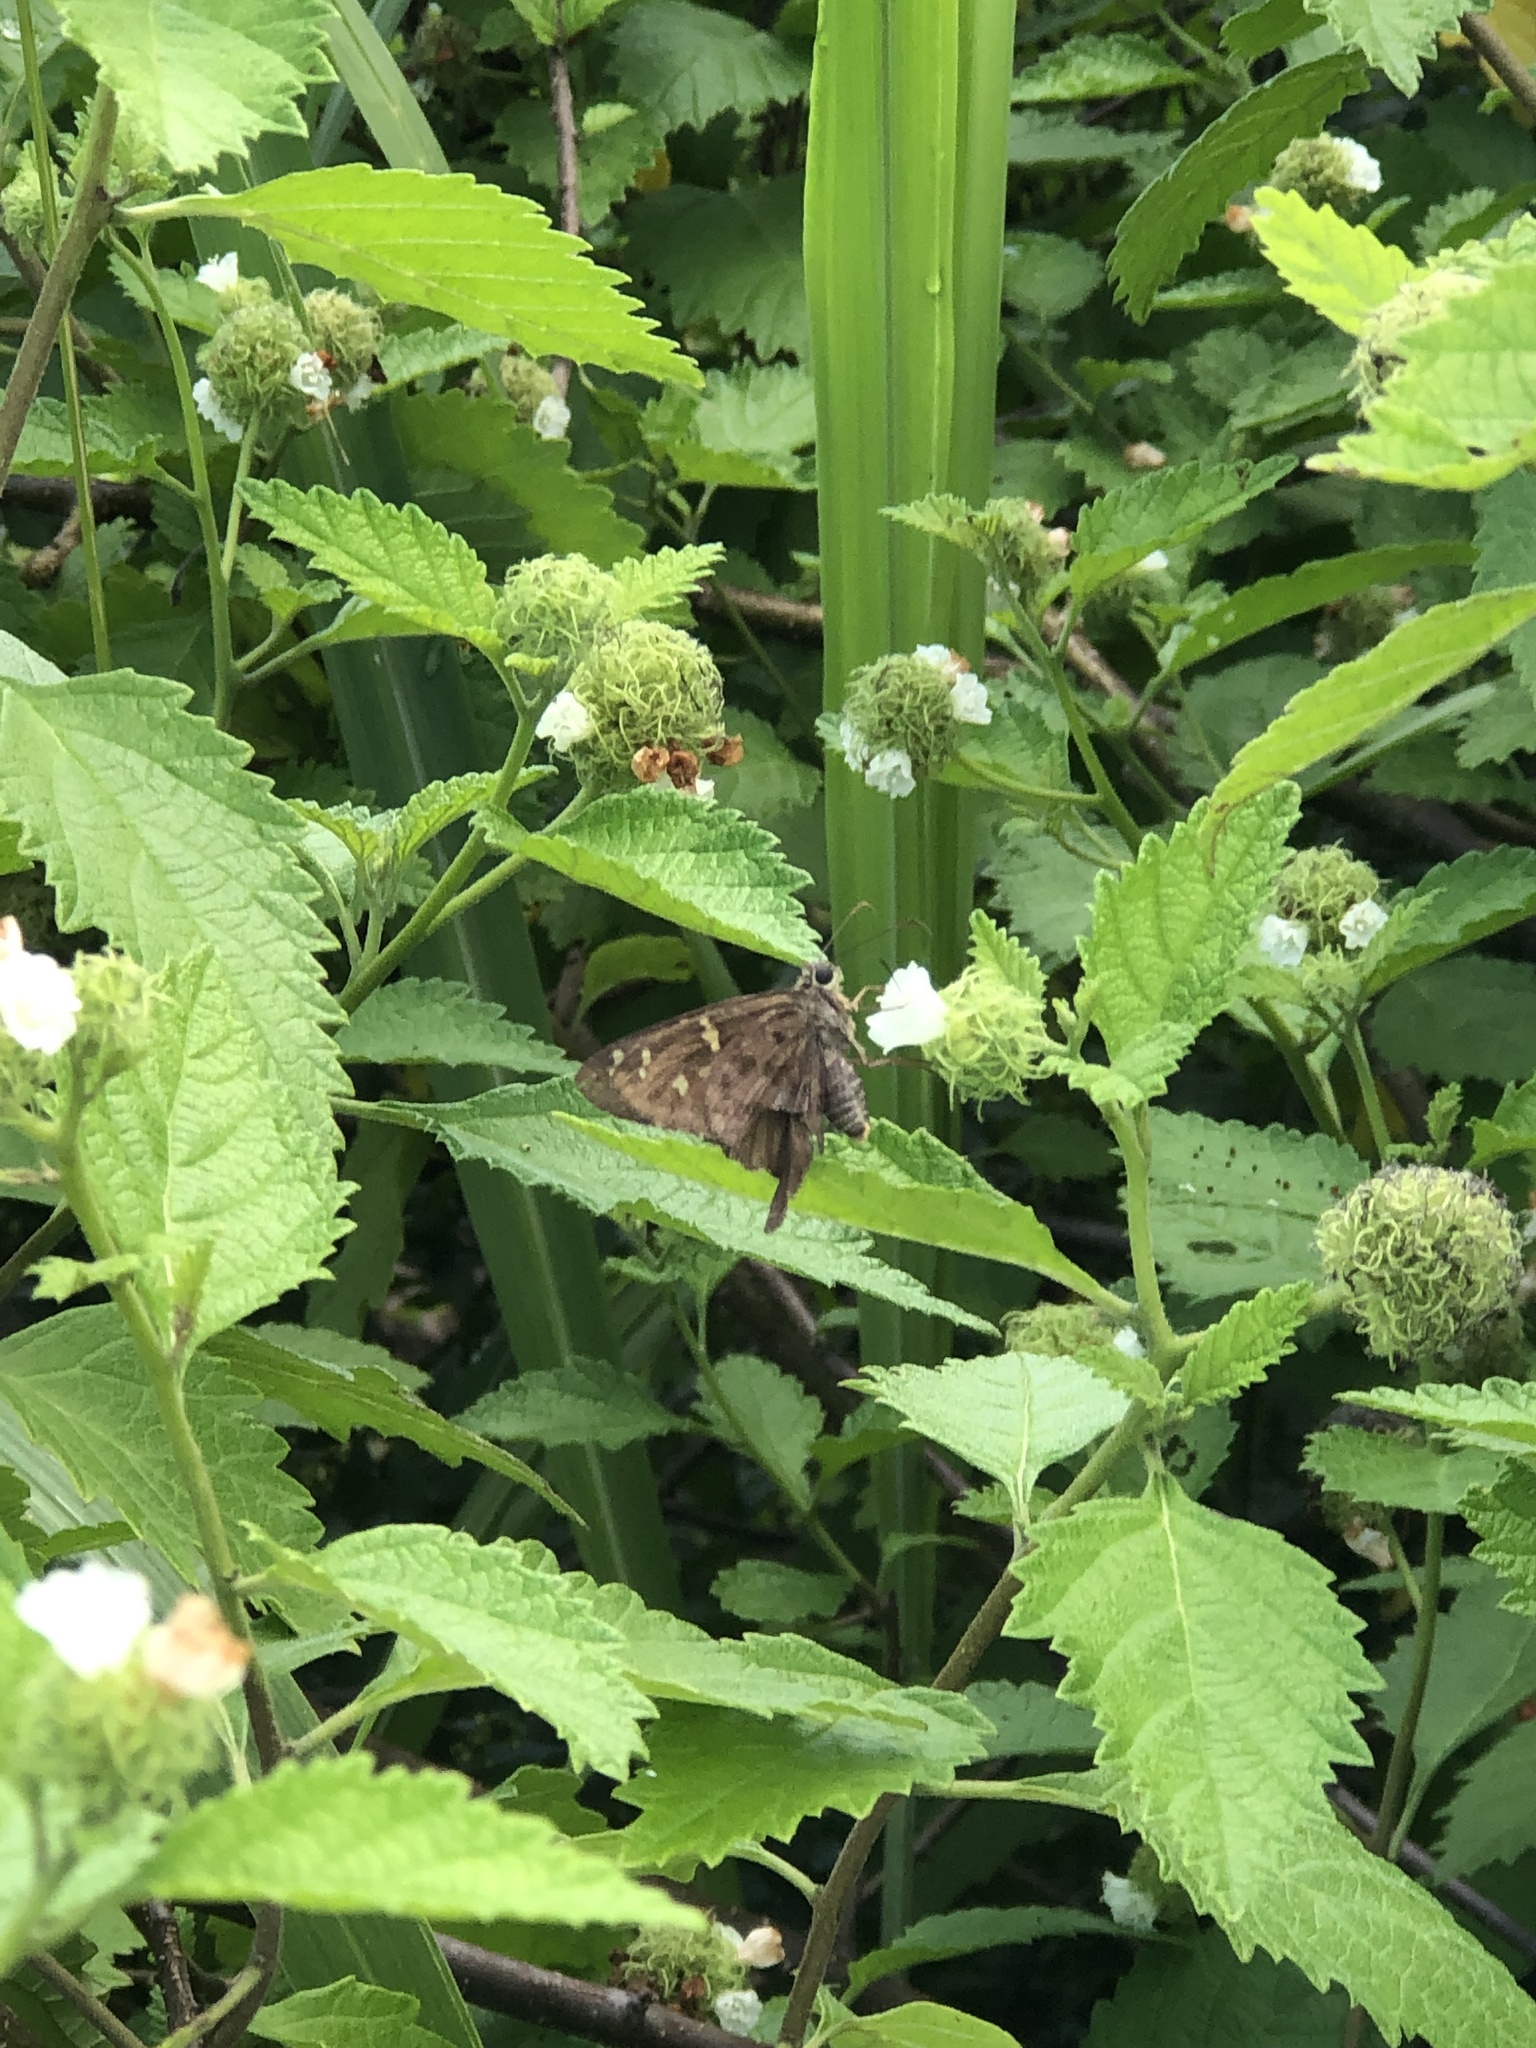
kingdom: Animalia
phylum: Arthropoda
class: Insecta
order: Lepidoptera
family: Hesperiidae
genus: Thorybes
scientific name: Thorybes
